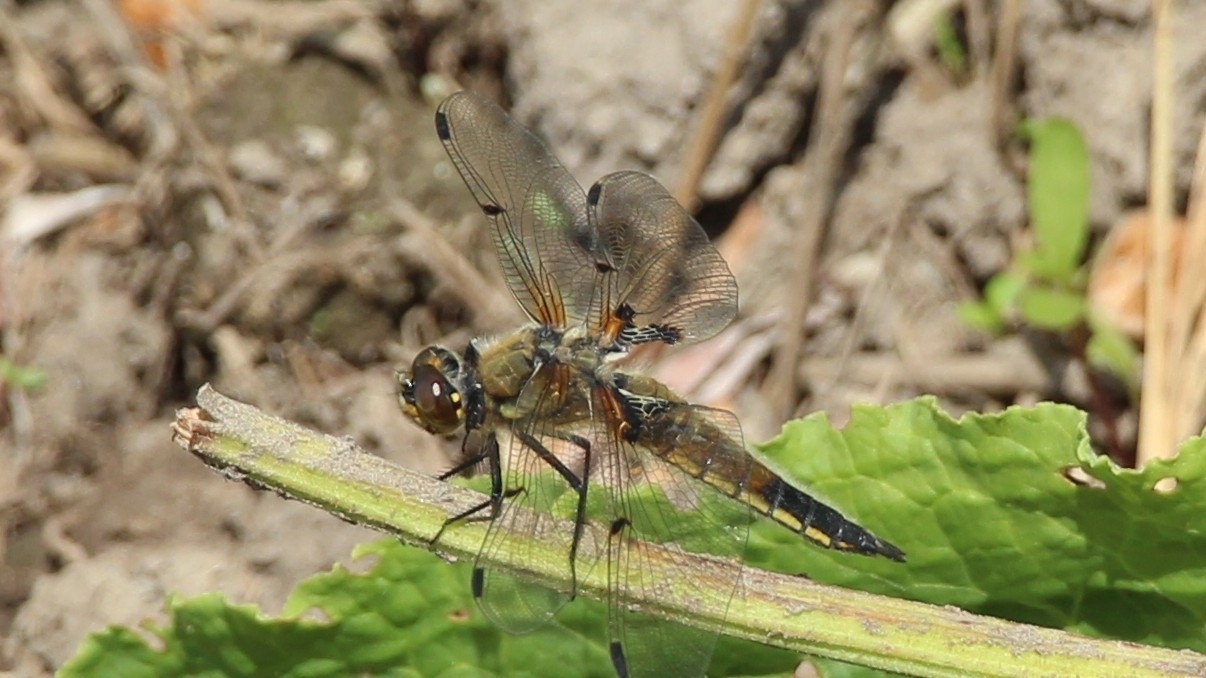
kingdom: Animalia
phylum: Arthropoda
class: Insecta
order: Odonata
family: Libellulidae
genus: Libellula
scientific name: Libellula quadrimaculata
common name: Four-spotted chaser
